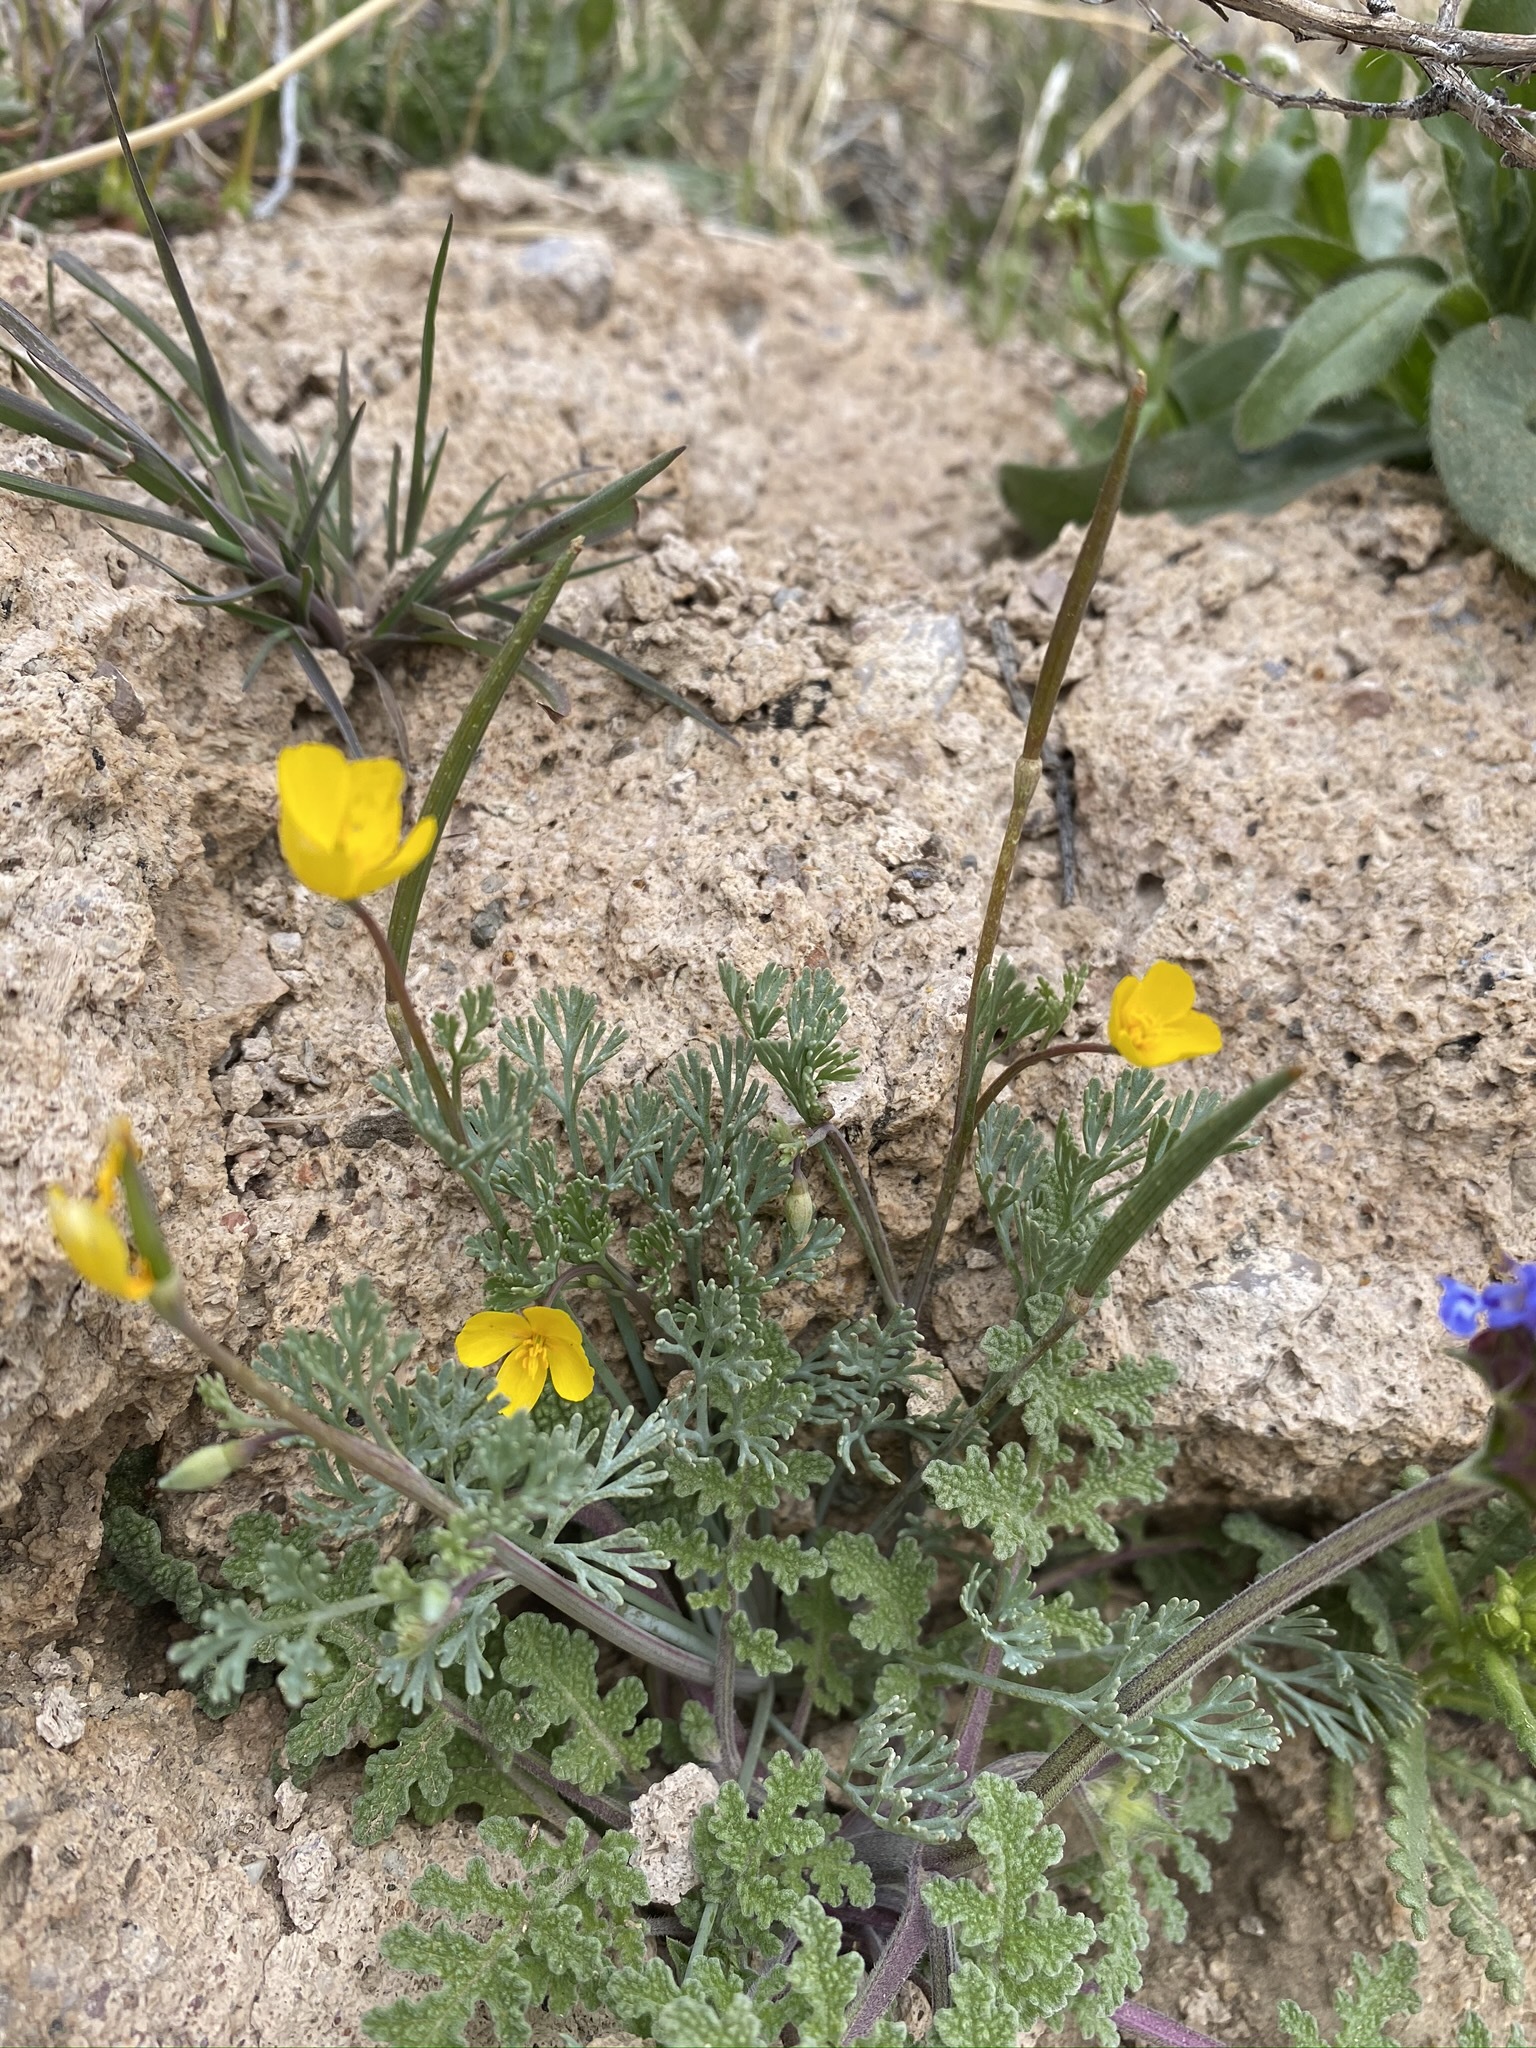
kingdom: Plantae
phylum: Tracheophyta
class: Magnoliopsida
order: Ranunculales
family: Papaveraceae
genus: Eschscholzia
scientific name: Eschscholzia minutiflora
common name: Small-flower california-poppy
